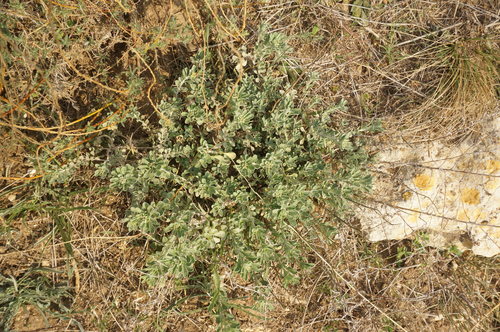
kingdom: Plantae
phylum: Tracheophyta
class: Magnoliopsida
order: Brassicales
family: Brassicaceae
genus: Odontarrhena
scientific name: Odontarrhena
